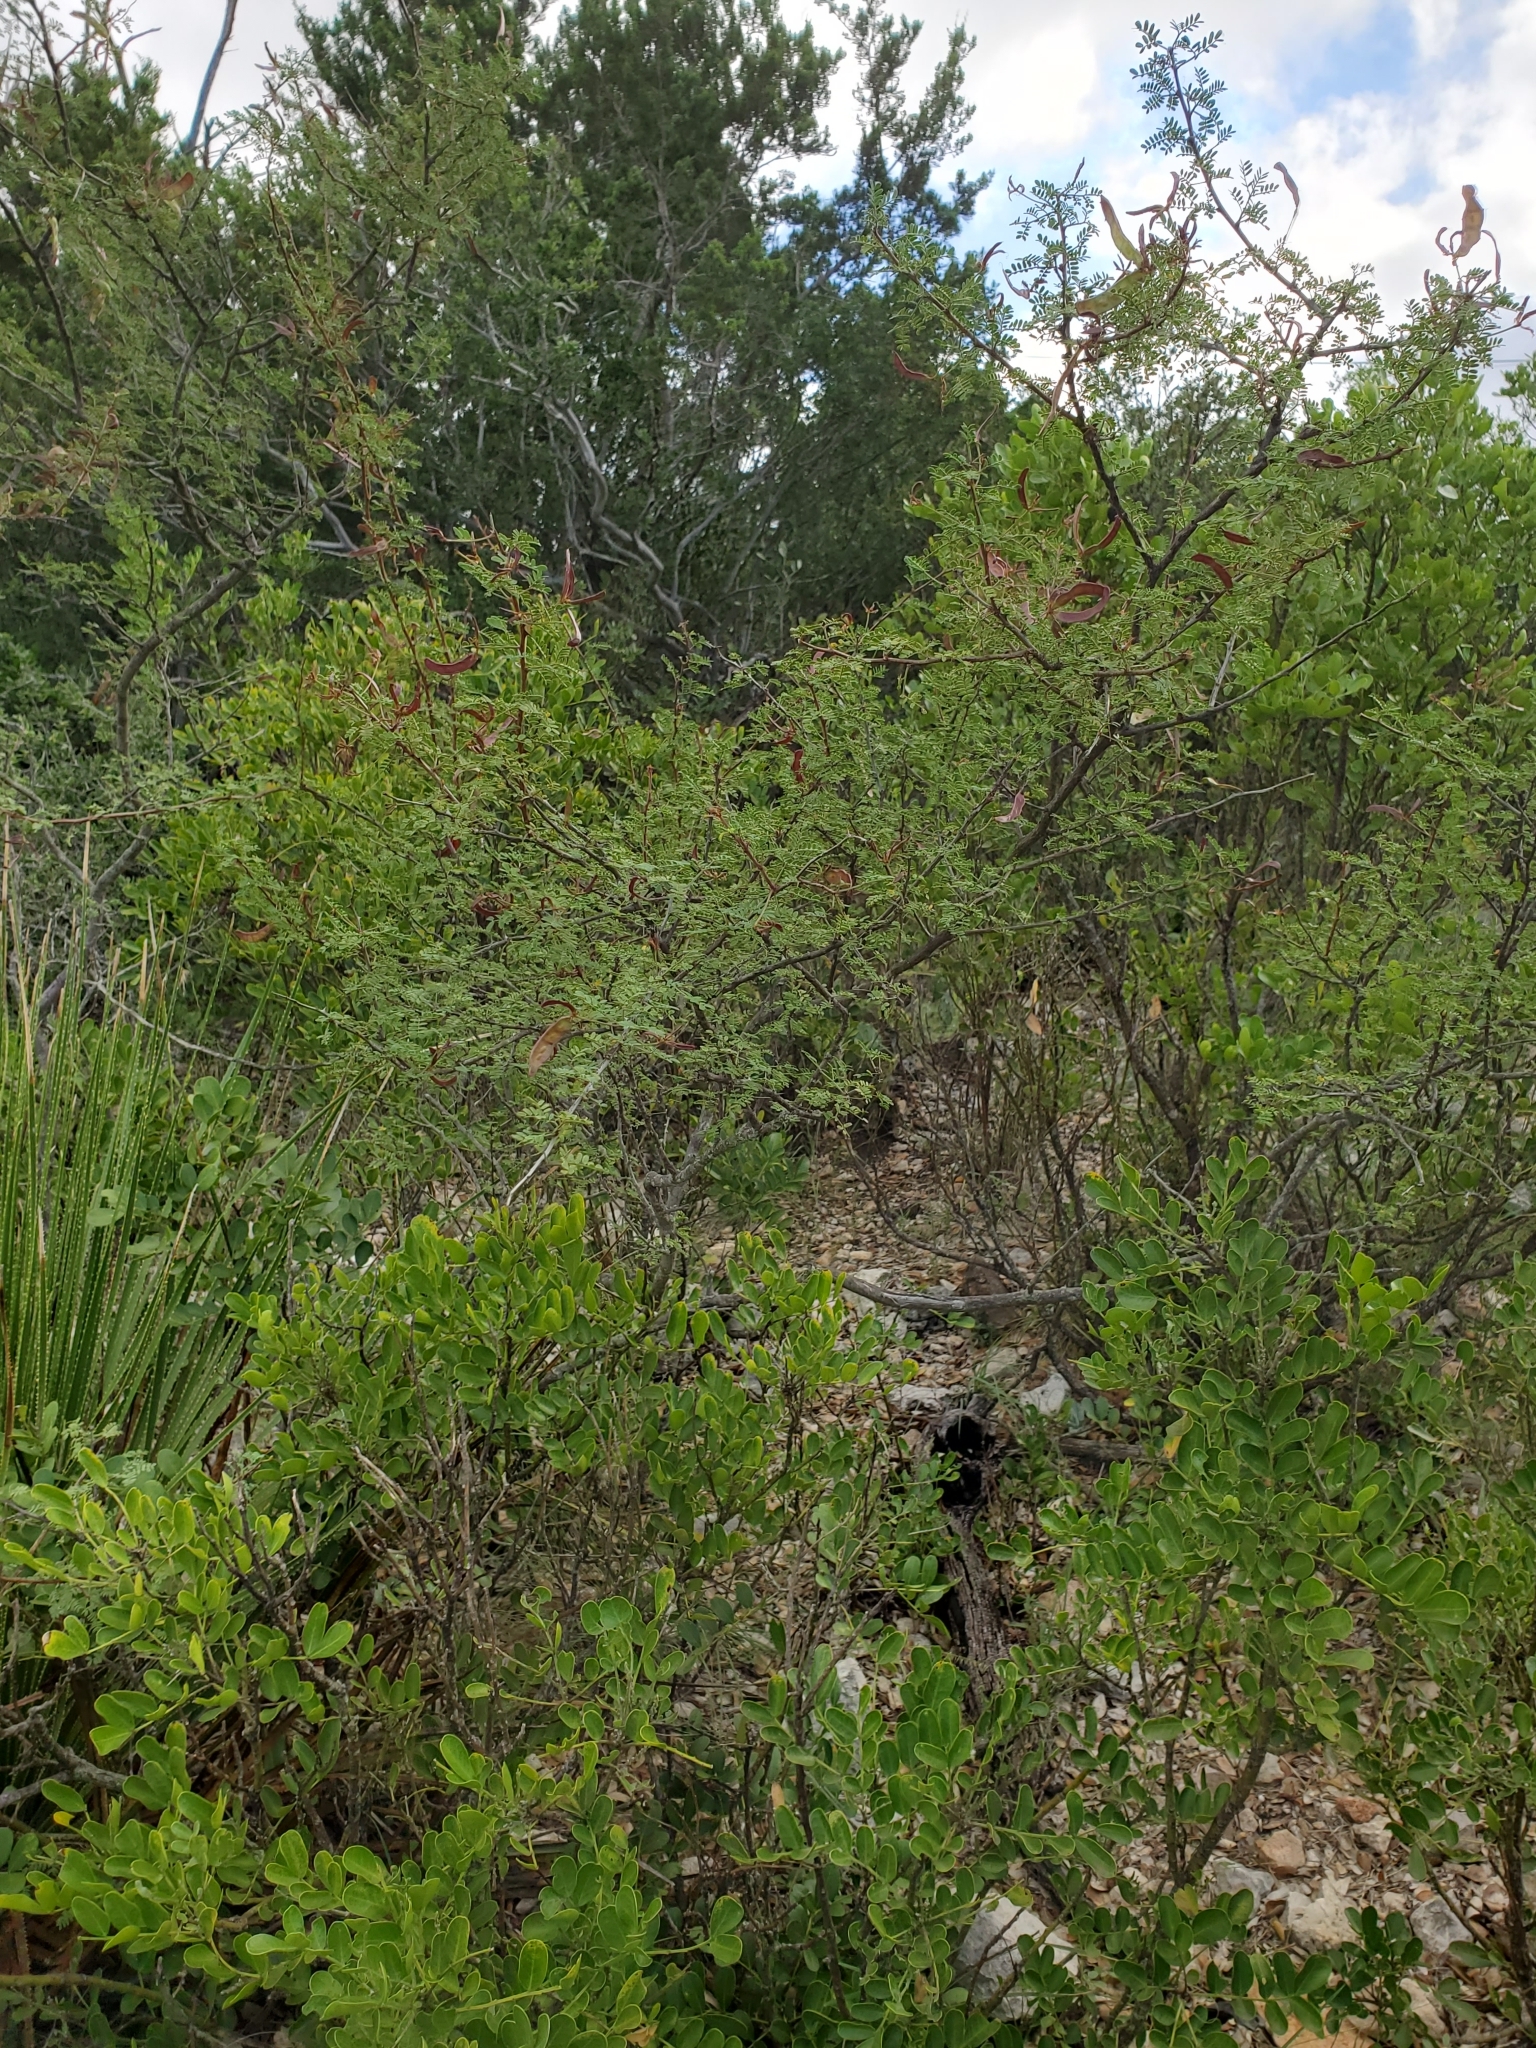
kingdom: Plantae
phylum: Tracheophyta
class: Magnoliopsida
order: Fabales
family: Fabaceae
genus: Mimosa
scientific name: Mimosa texana
